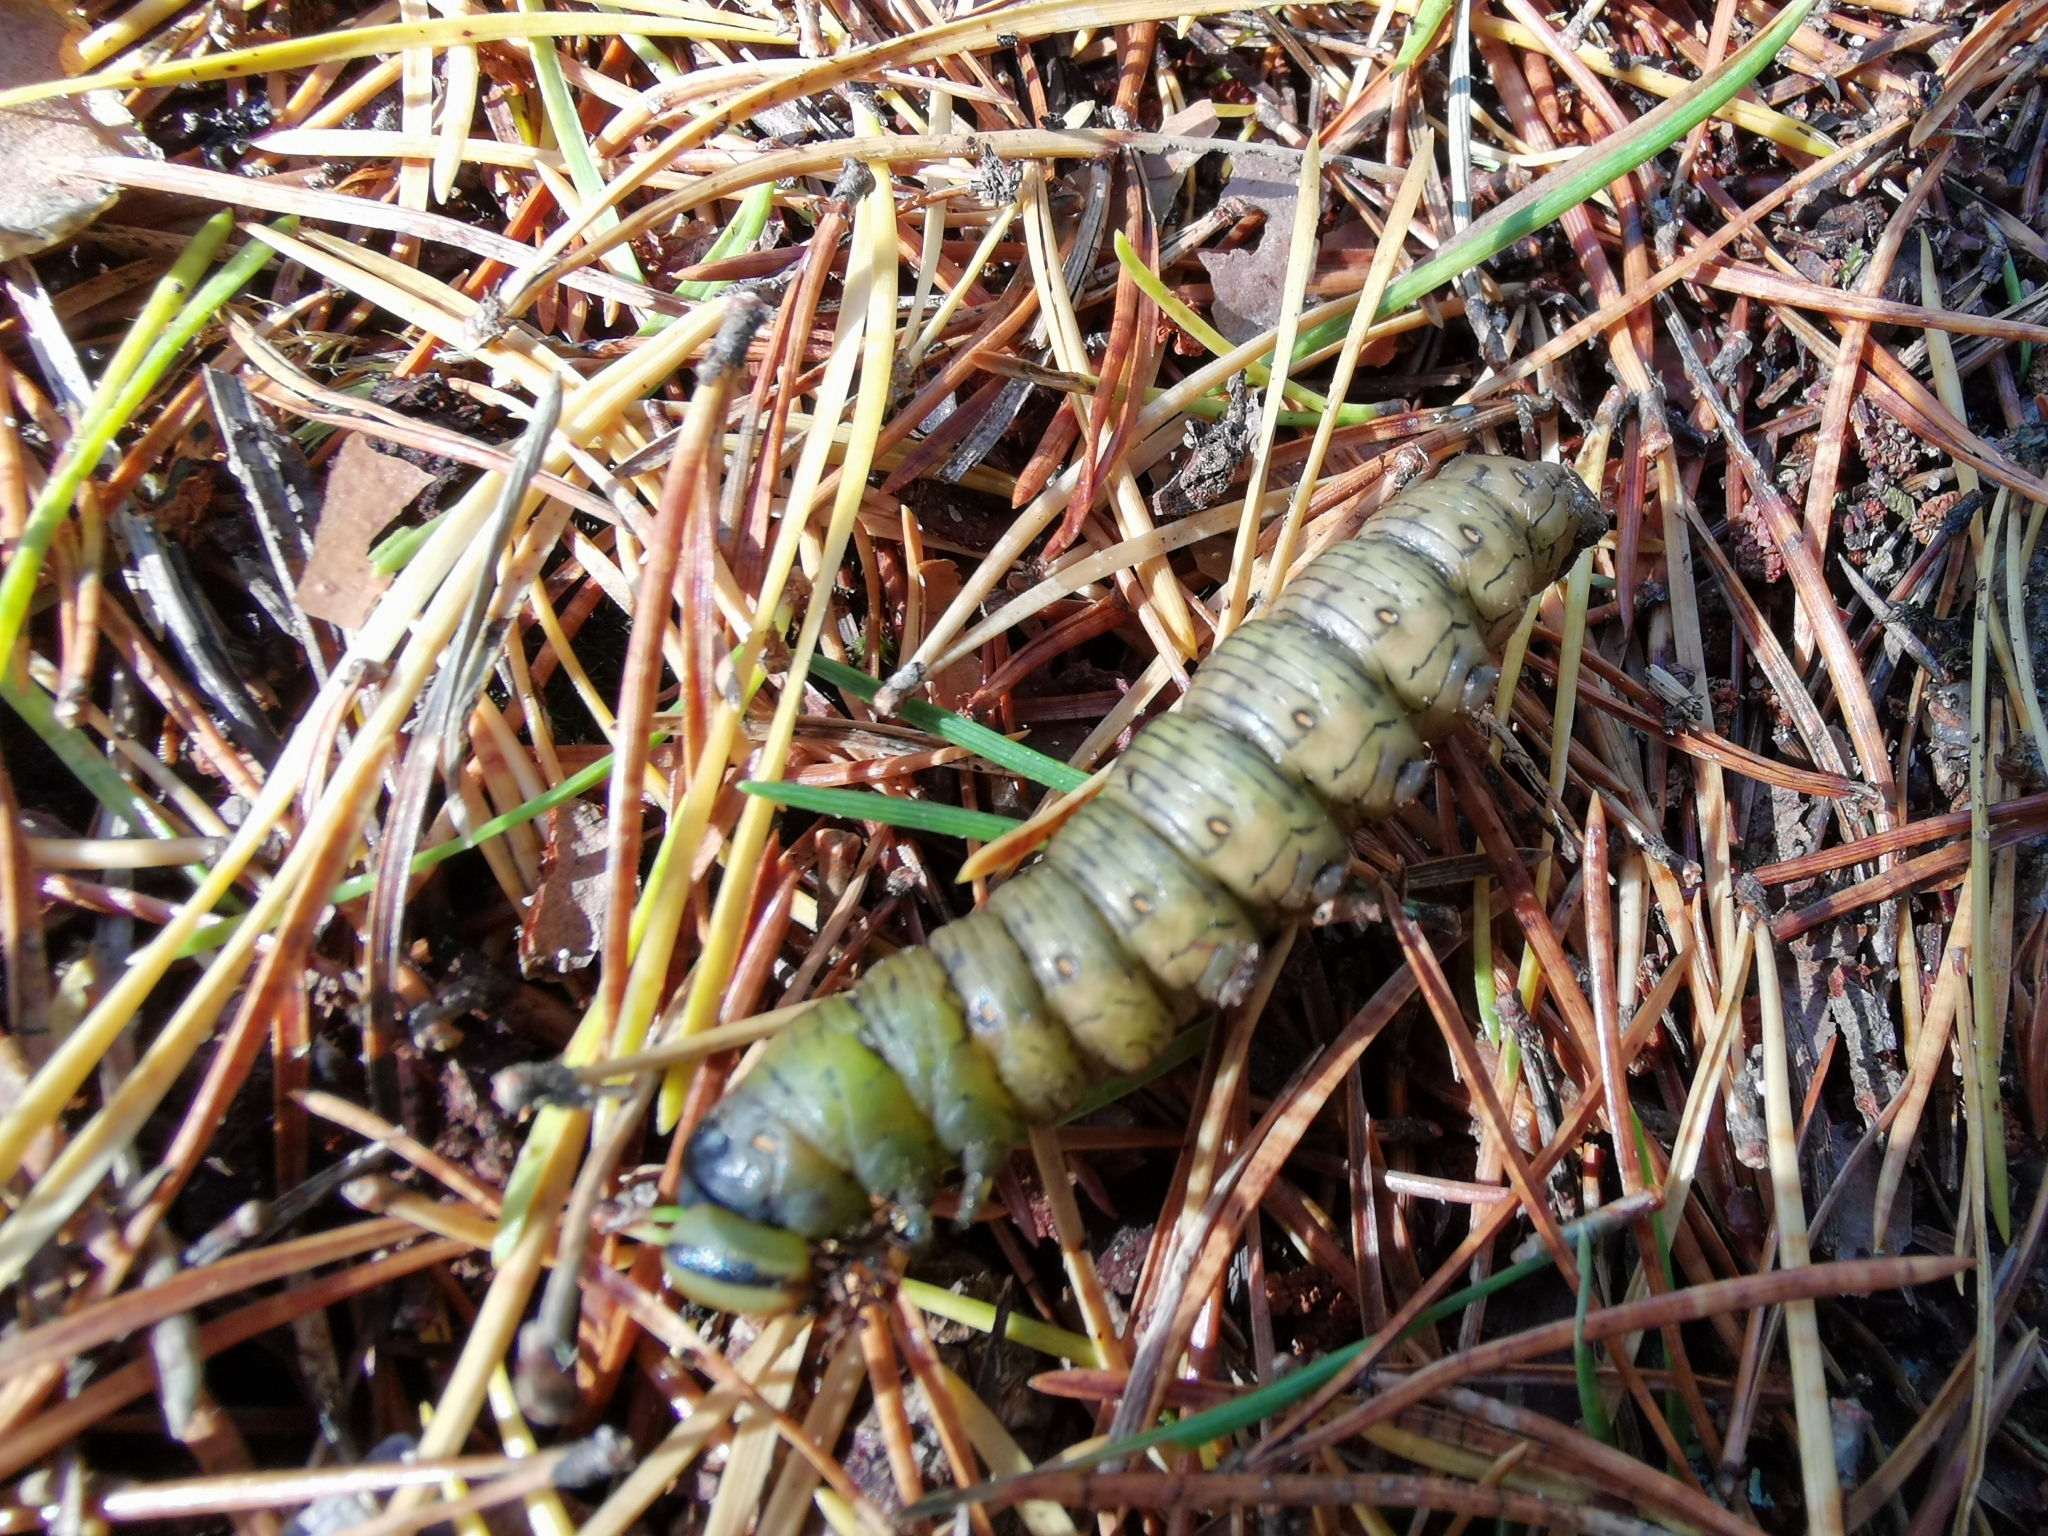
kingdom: Animalia
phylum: Arthropoda
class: Insecta
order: Lepidoptera
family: Sphingidae
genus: Sphinx
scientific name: Sphinx pinastri
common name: Pine hawk-moth
